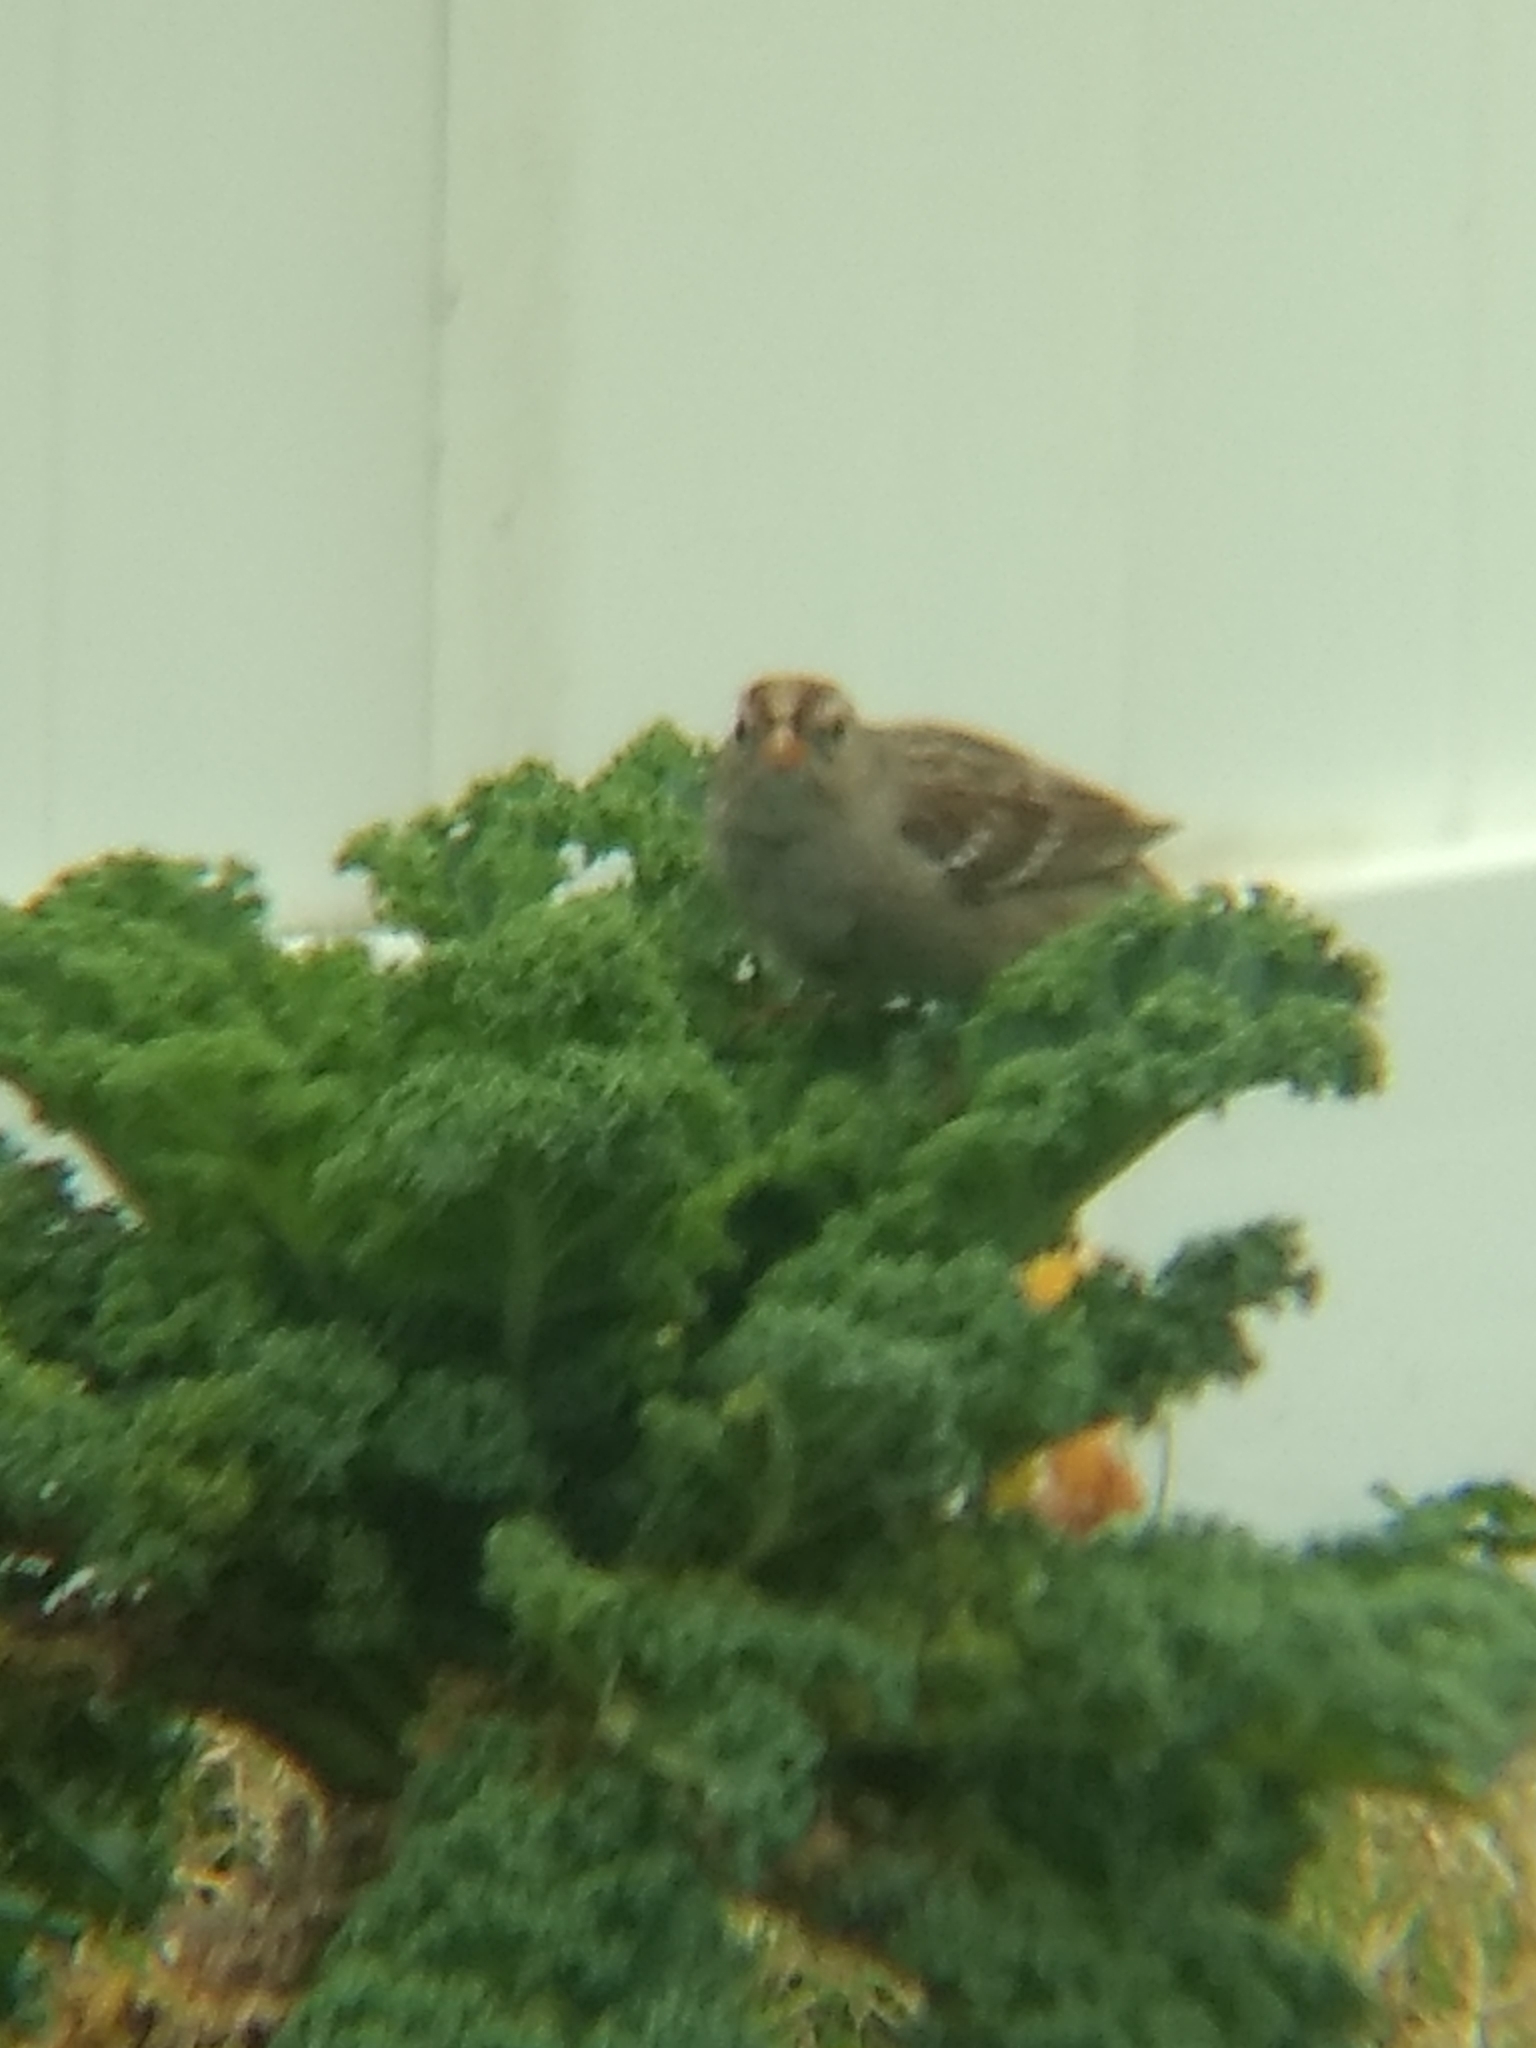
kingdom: Animalia
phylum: Chordata
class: Aves
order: Passeriformes
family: Passerellidae
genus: Zonotrichia
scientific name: Zonotrichia leucophrys
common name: White-crowned sparrow
